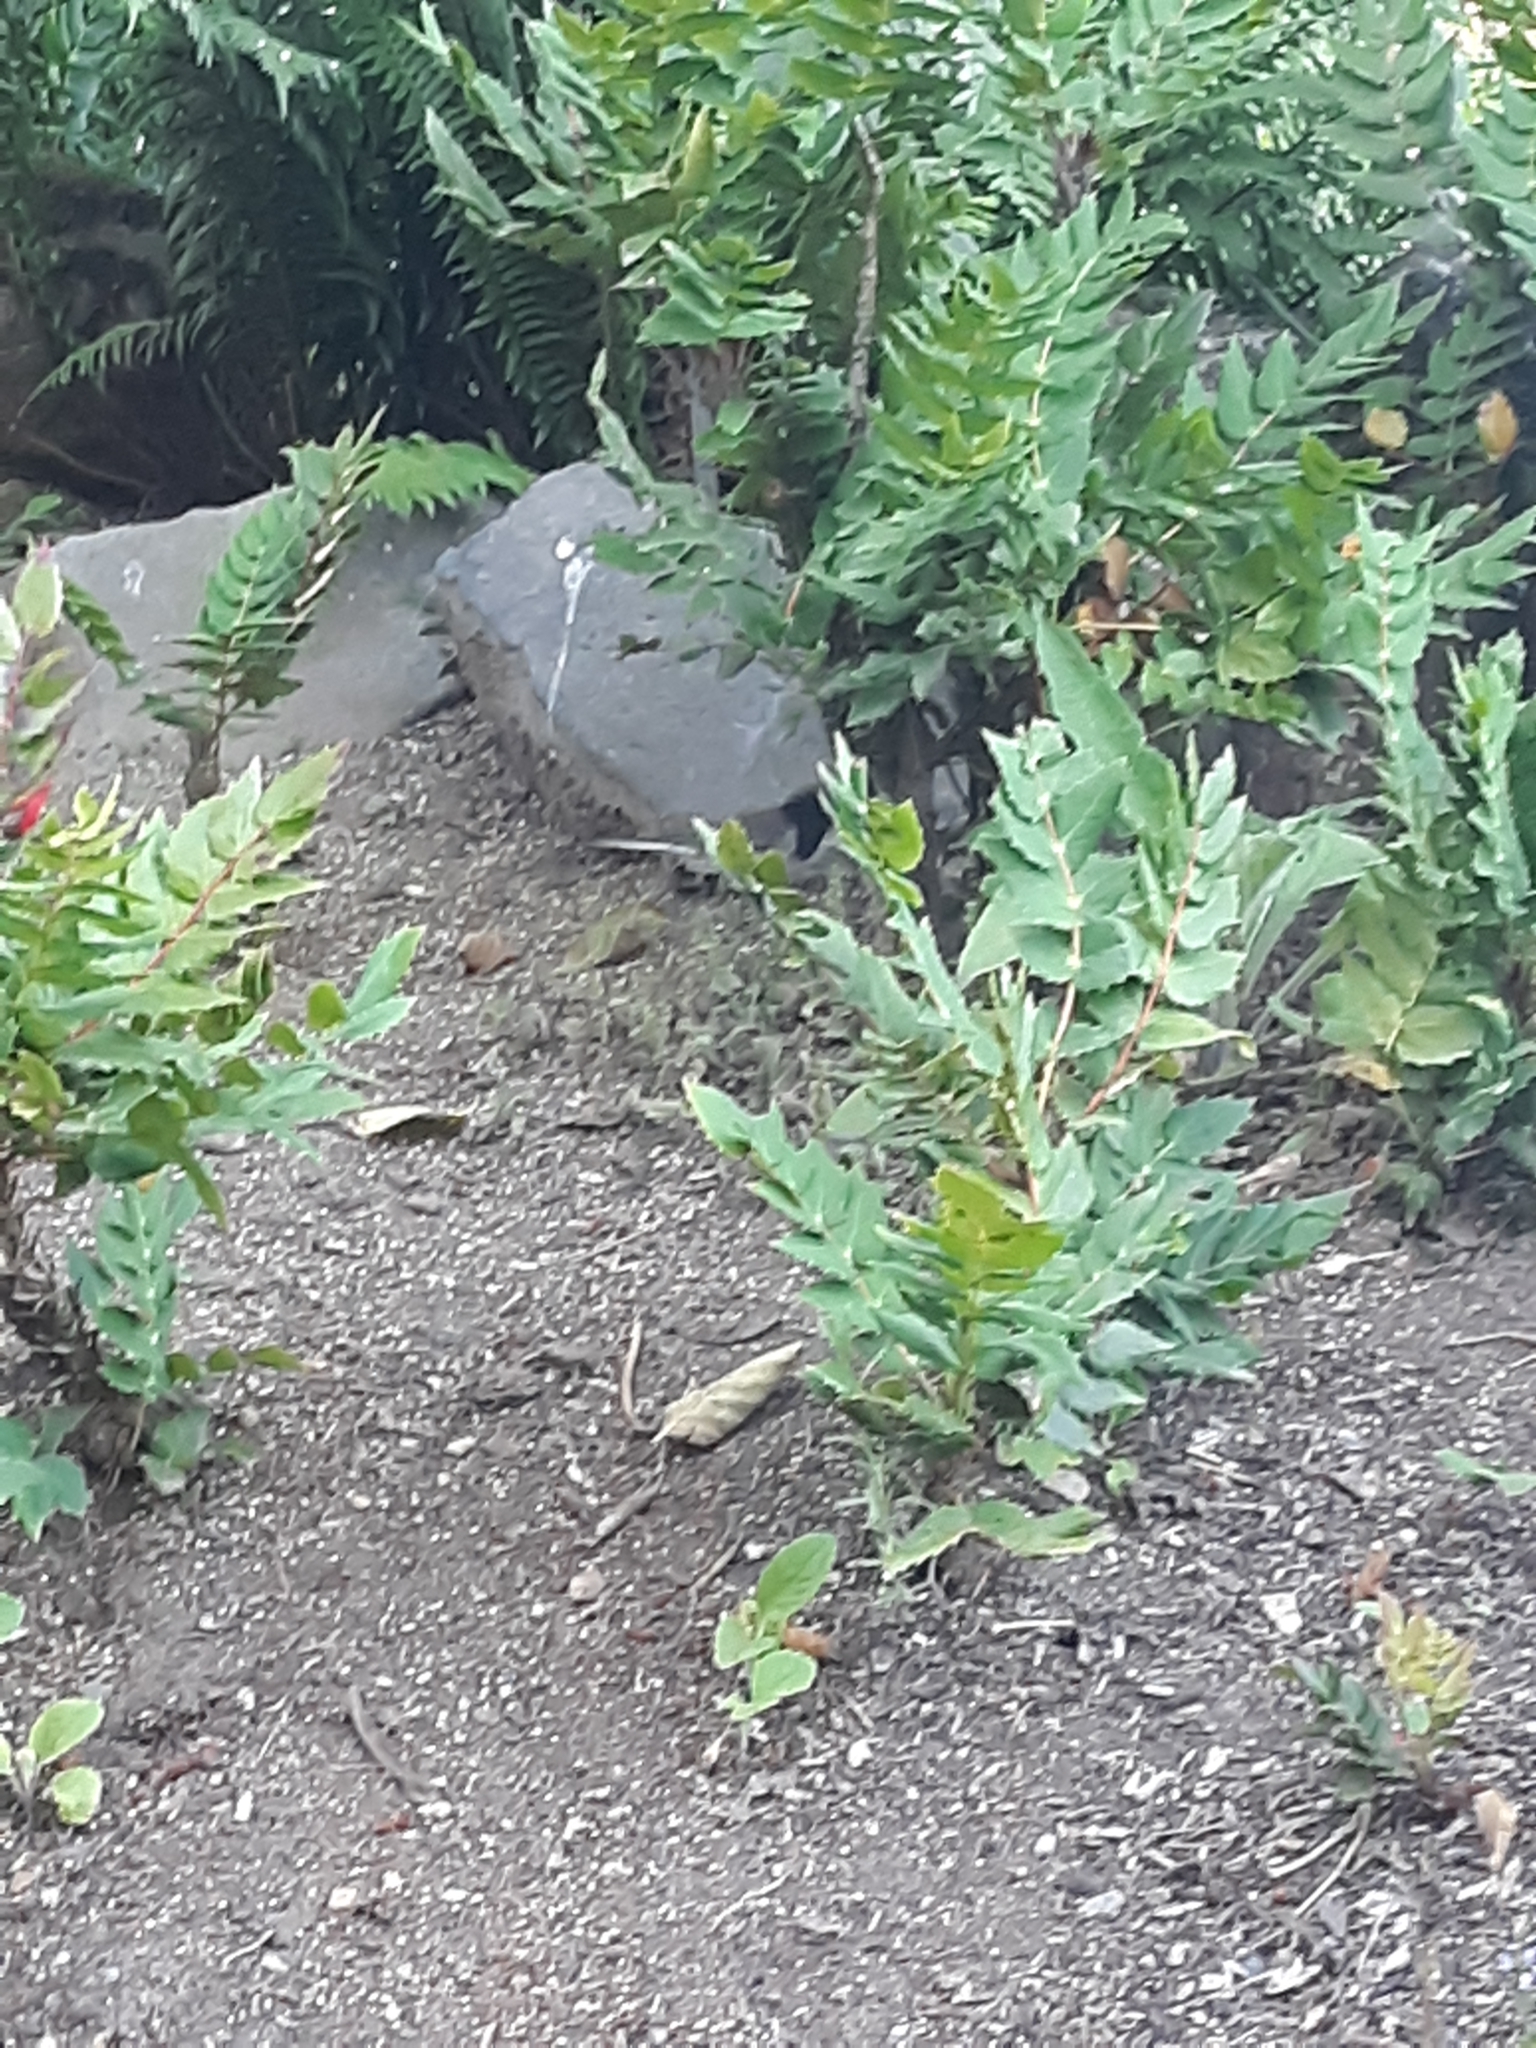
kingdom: Animalia
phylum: Chordata
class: Aves
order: Passeriformes
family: Passerellidae
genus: Junco
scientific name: Junco hyemalis
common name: Dark-eyed junco
